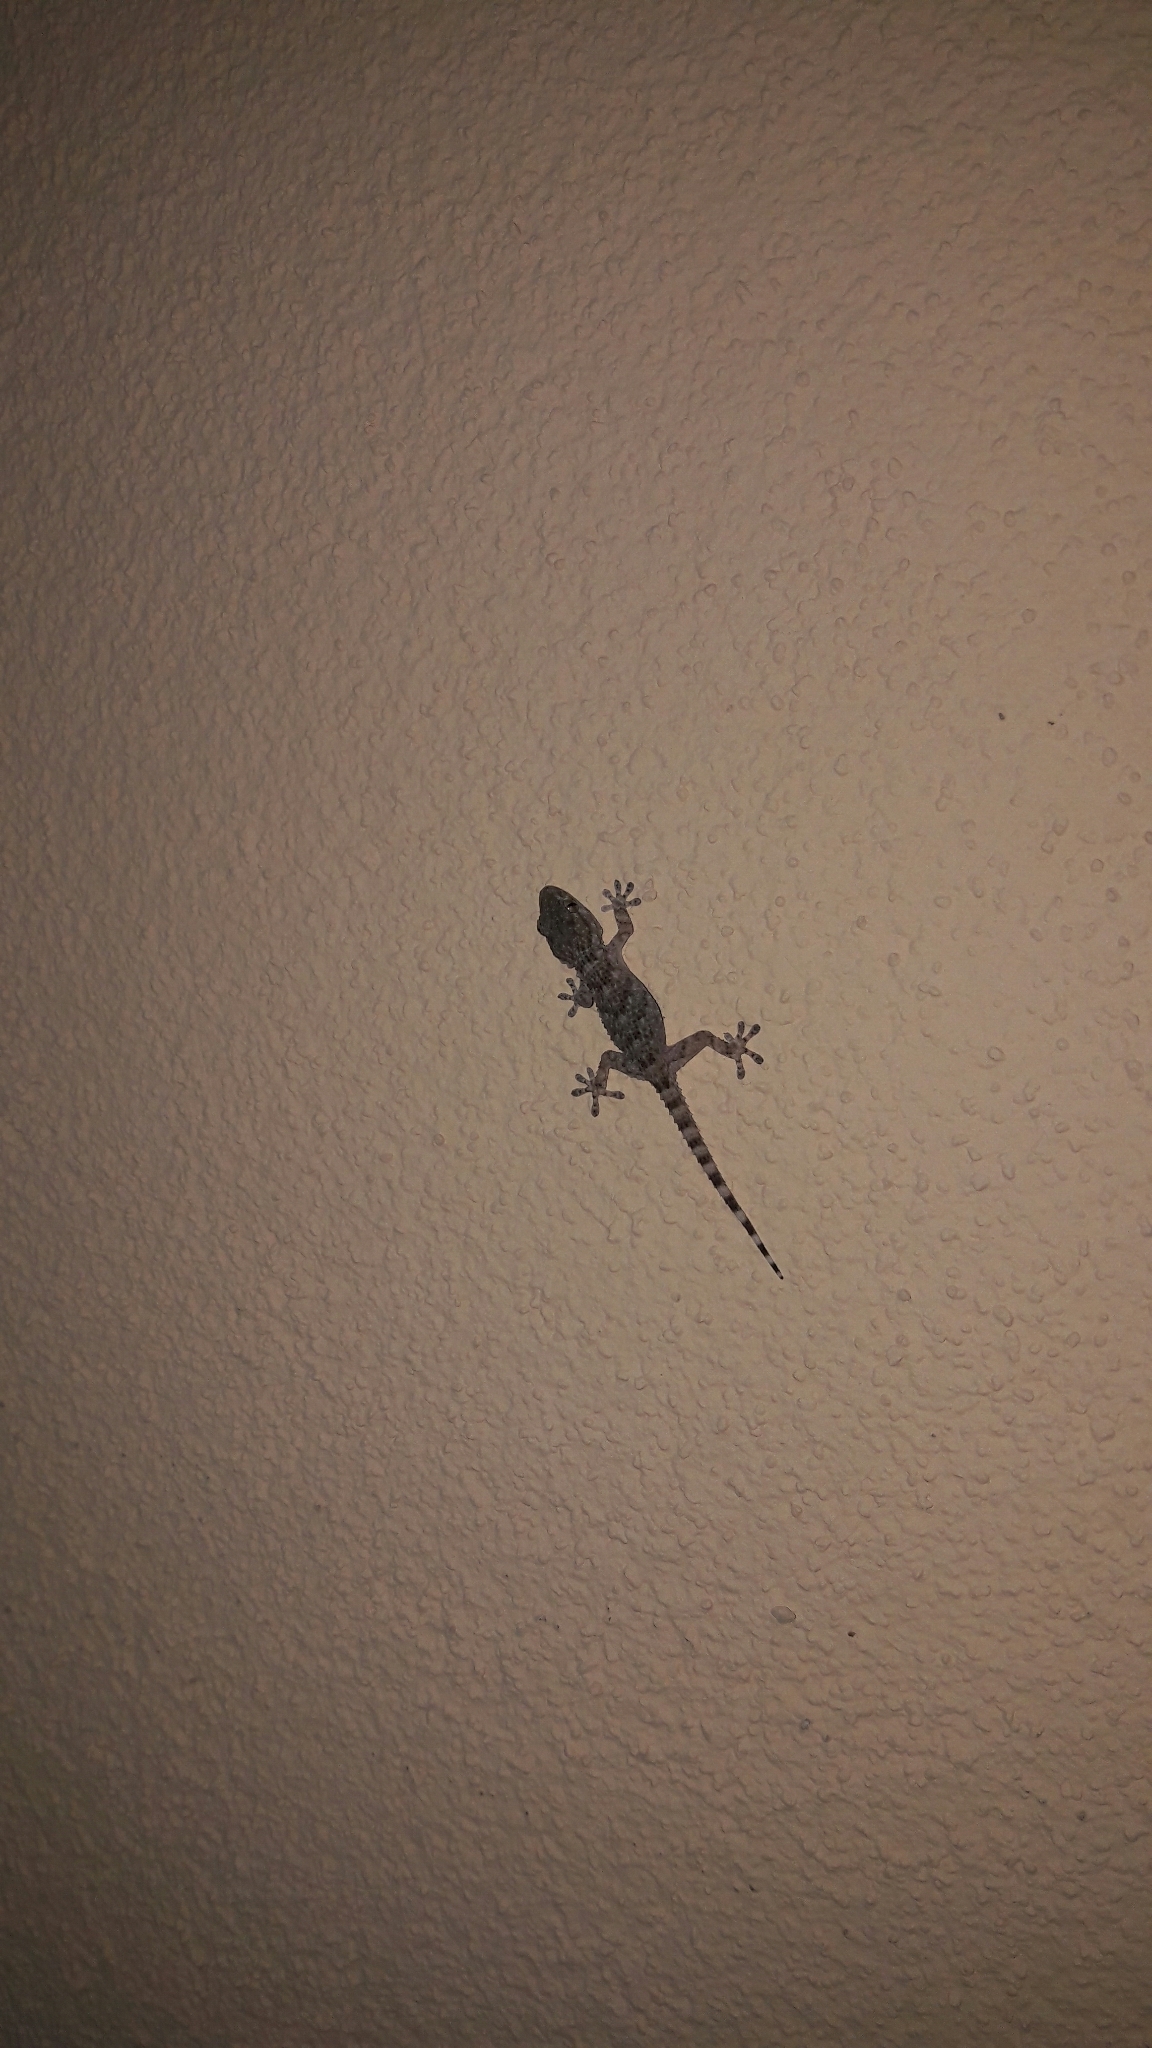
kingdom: Animalia
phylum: Chordata
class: Squamata
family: Phyllodactylidae
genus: Tarentola
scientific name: Tarentola mauritanica
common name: Moorish gecko
